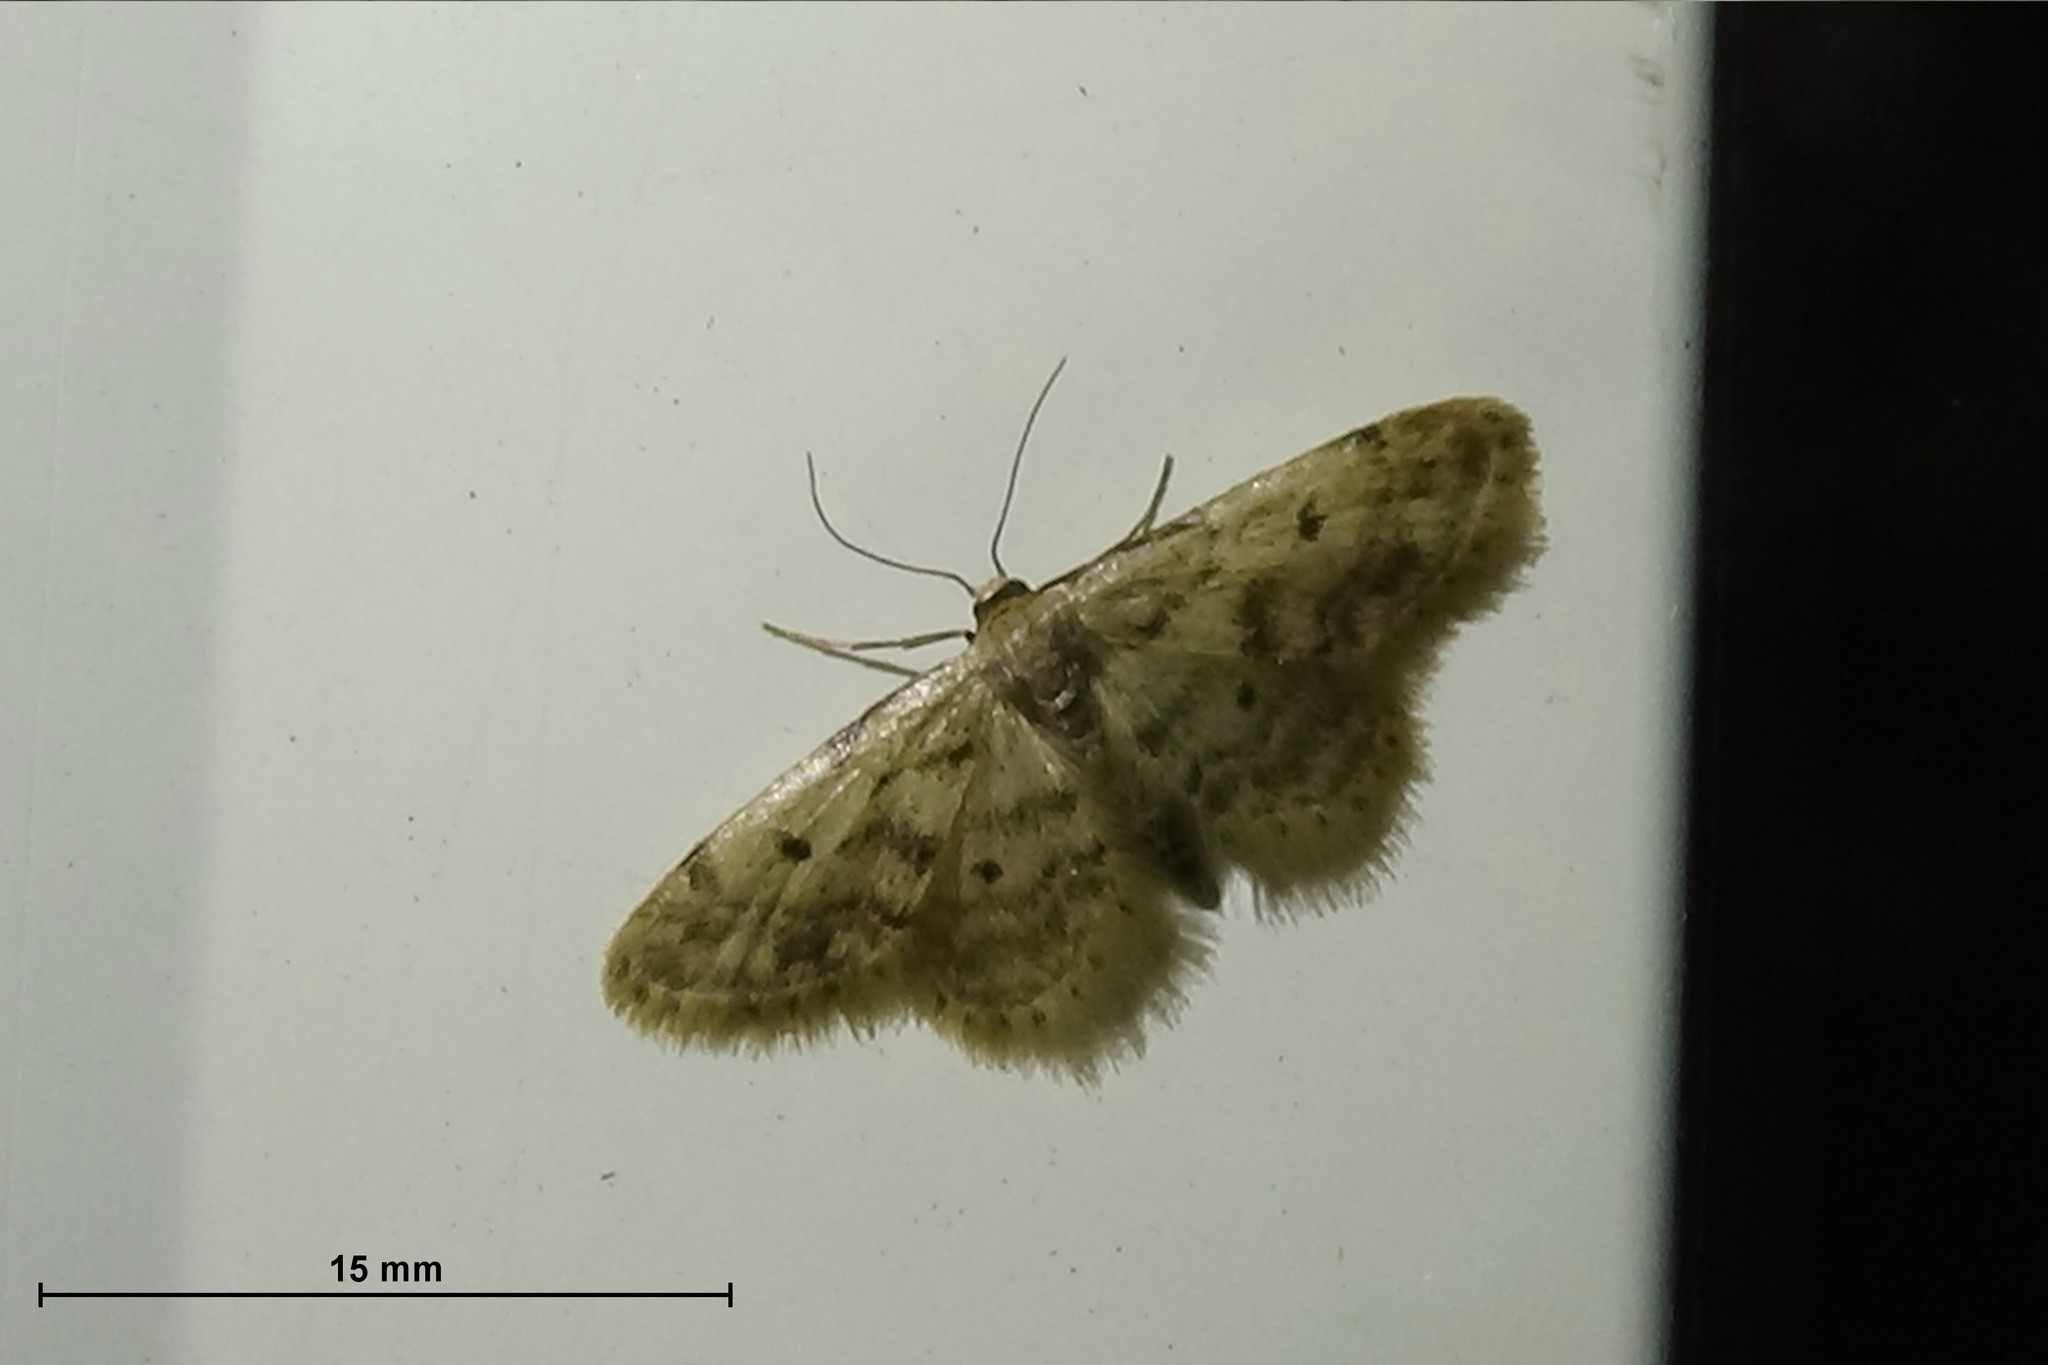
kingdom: Animalia
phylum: Arthropoda
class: Insecta
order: Lepidoptera
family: Geometridae
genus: Idaea
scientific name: Idaea bonifata
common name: Fortunate wave
